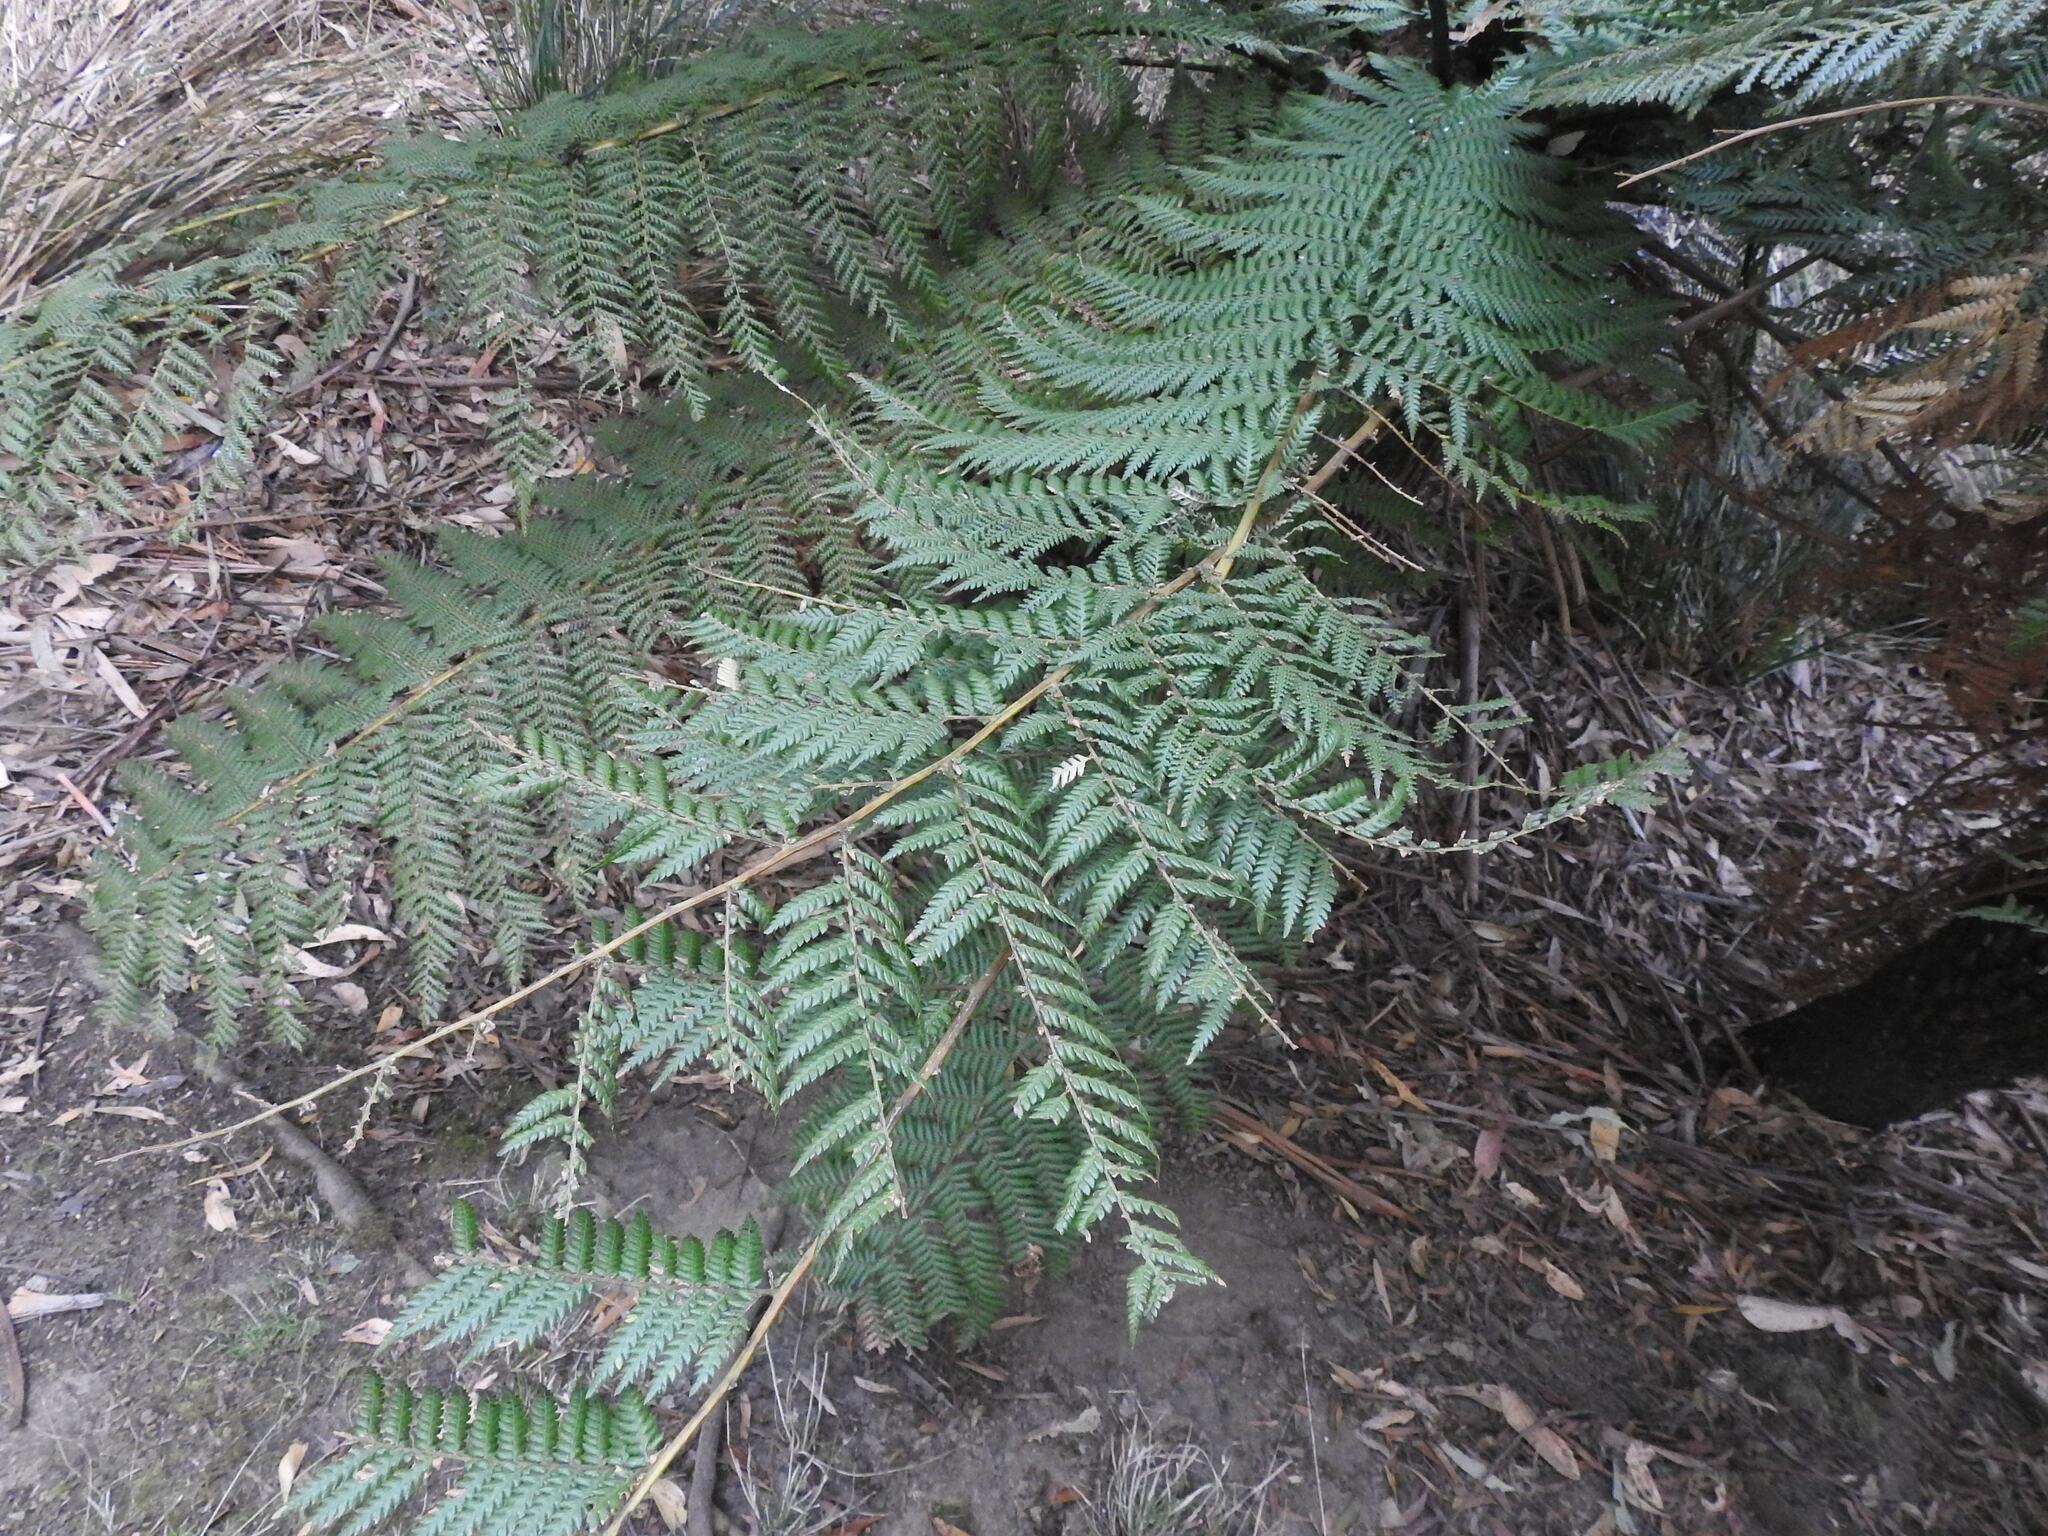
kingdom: Plantae
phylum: Tracheophyta
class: Polypodiopsida
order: Cyatheales
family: Dicksoniaceae
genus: Dicksonia
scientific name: Dicksonia antarctica
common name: Australian treefern
